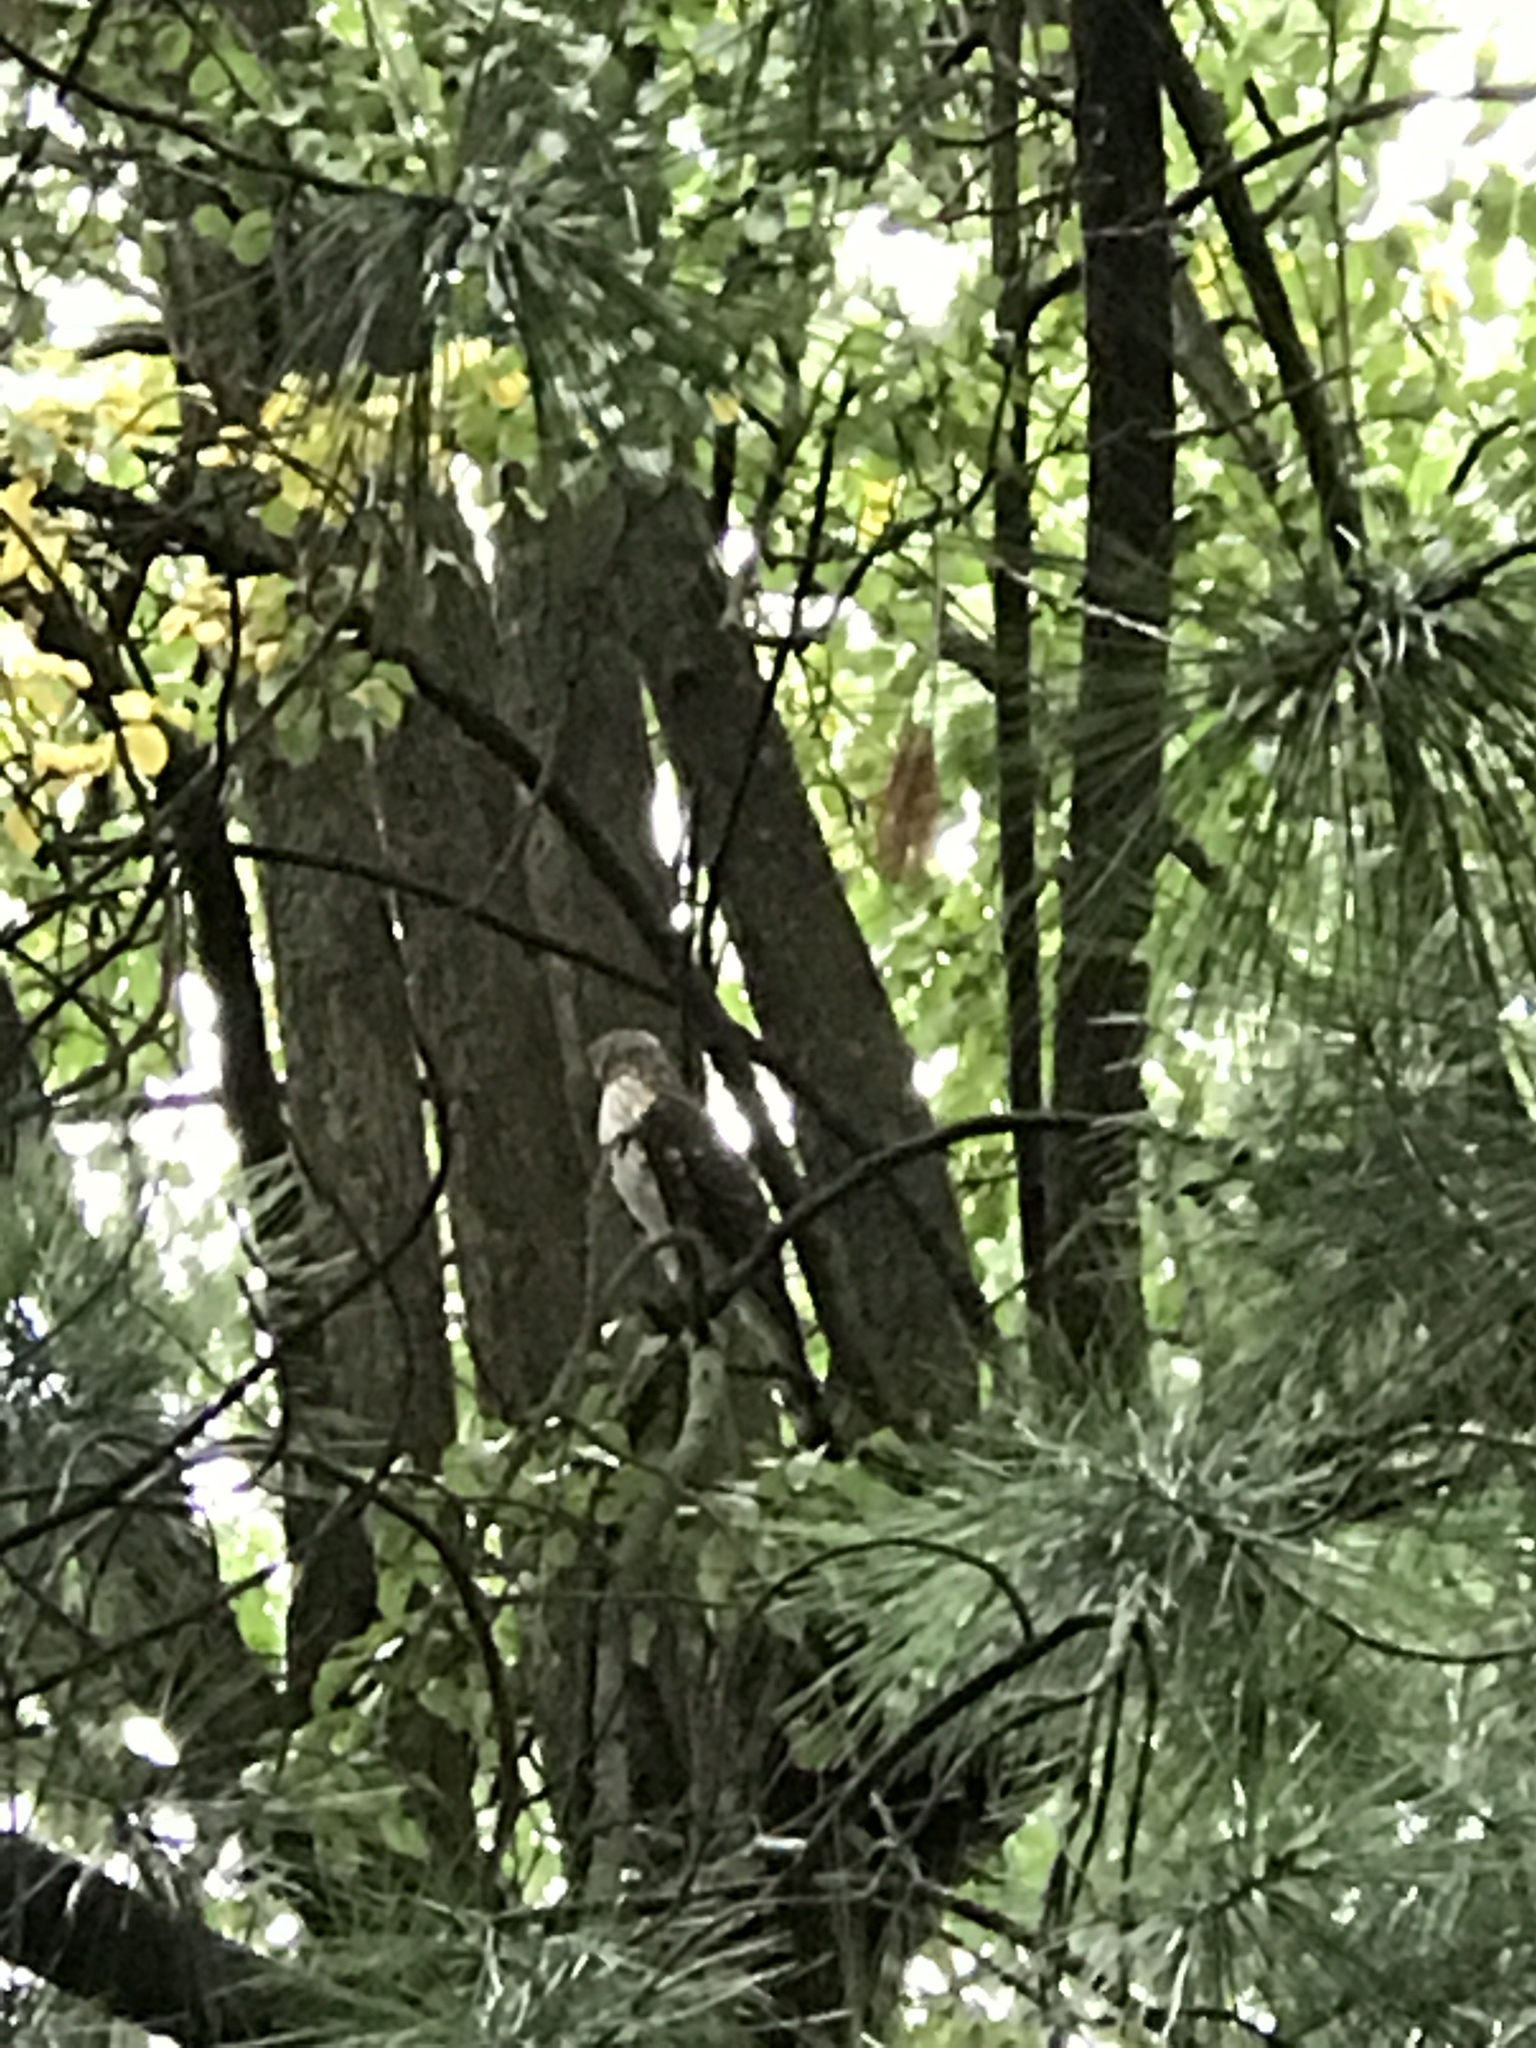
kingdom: Animalia
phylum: Chordata
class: Aves
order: Accipitriformes
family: Accipitridae
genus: Accipiter
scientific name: Accipiter cooperii
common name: Cooper's hawk
